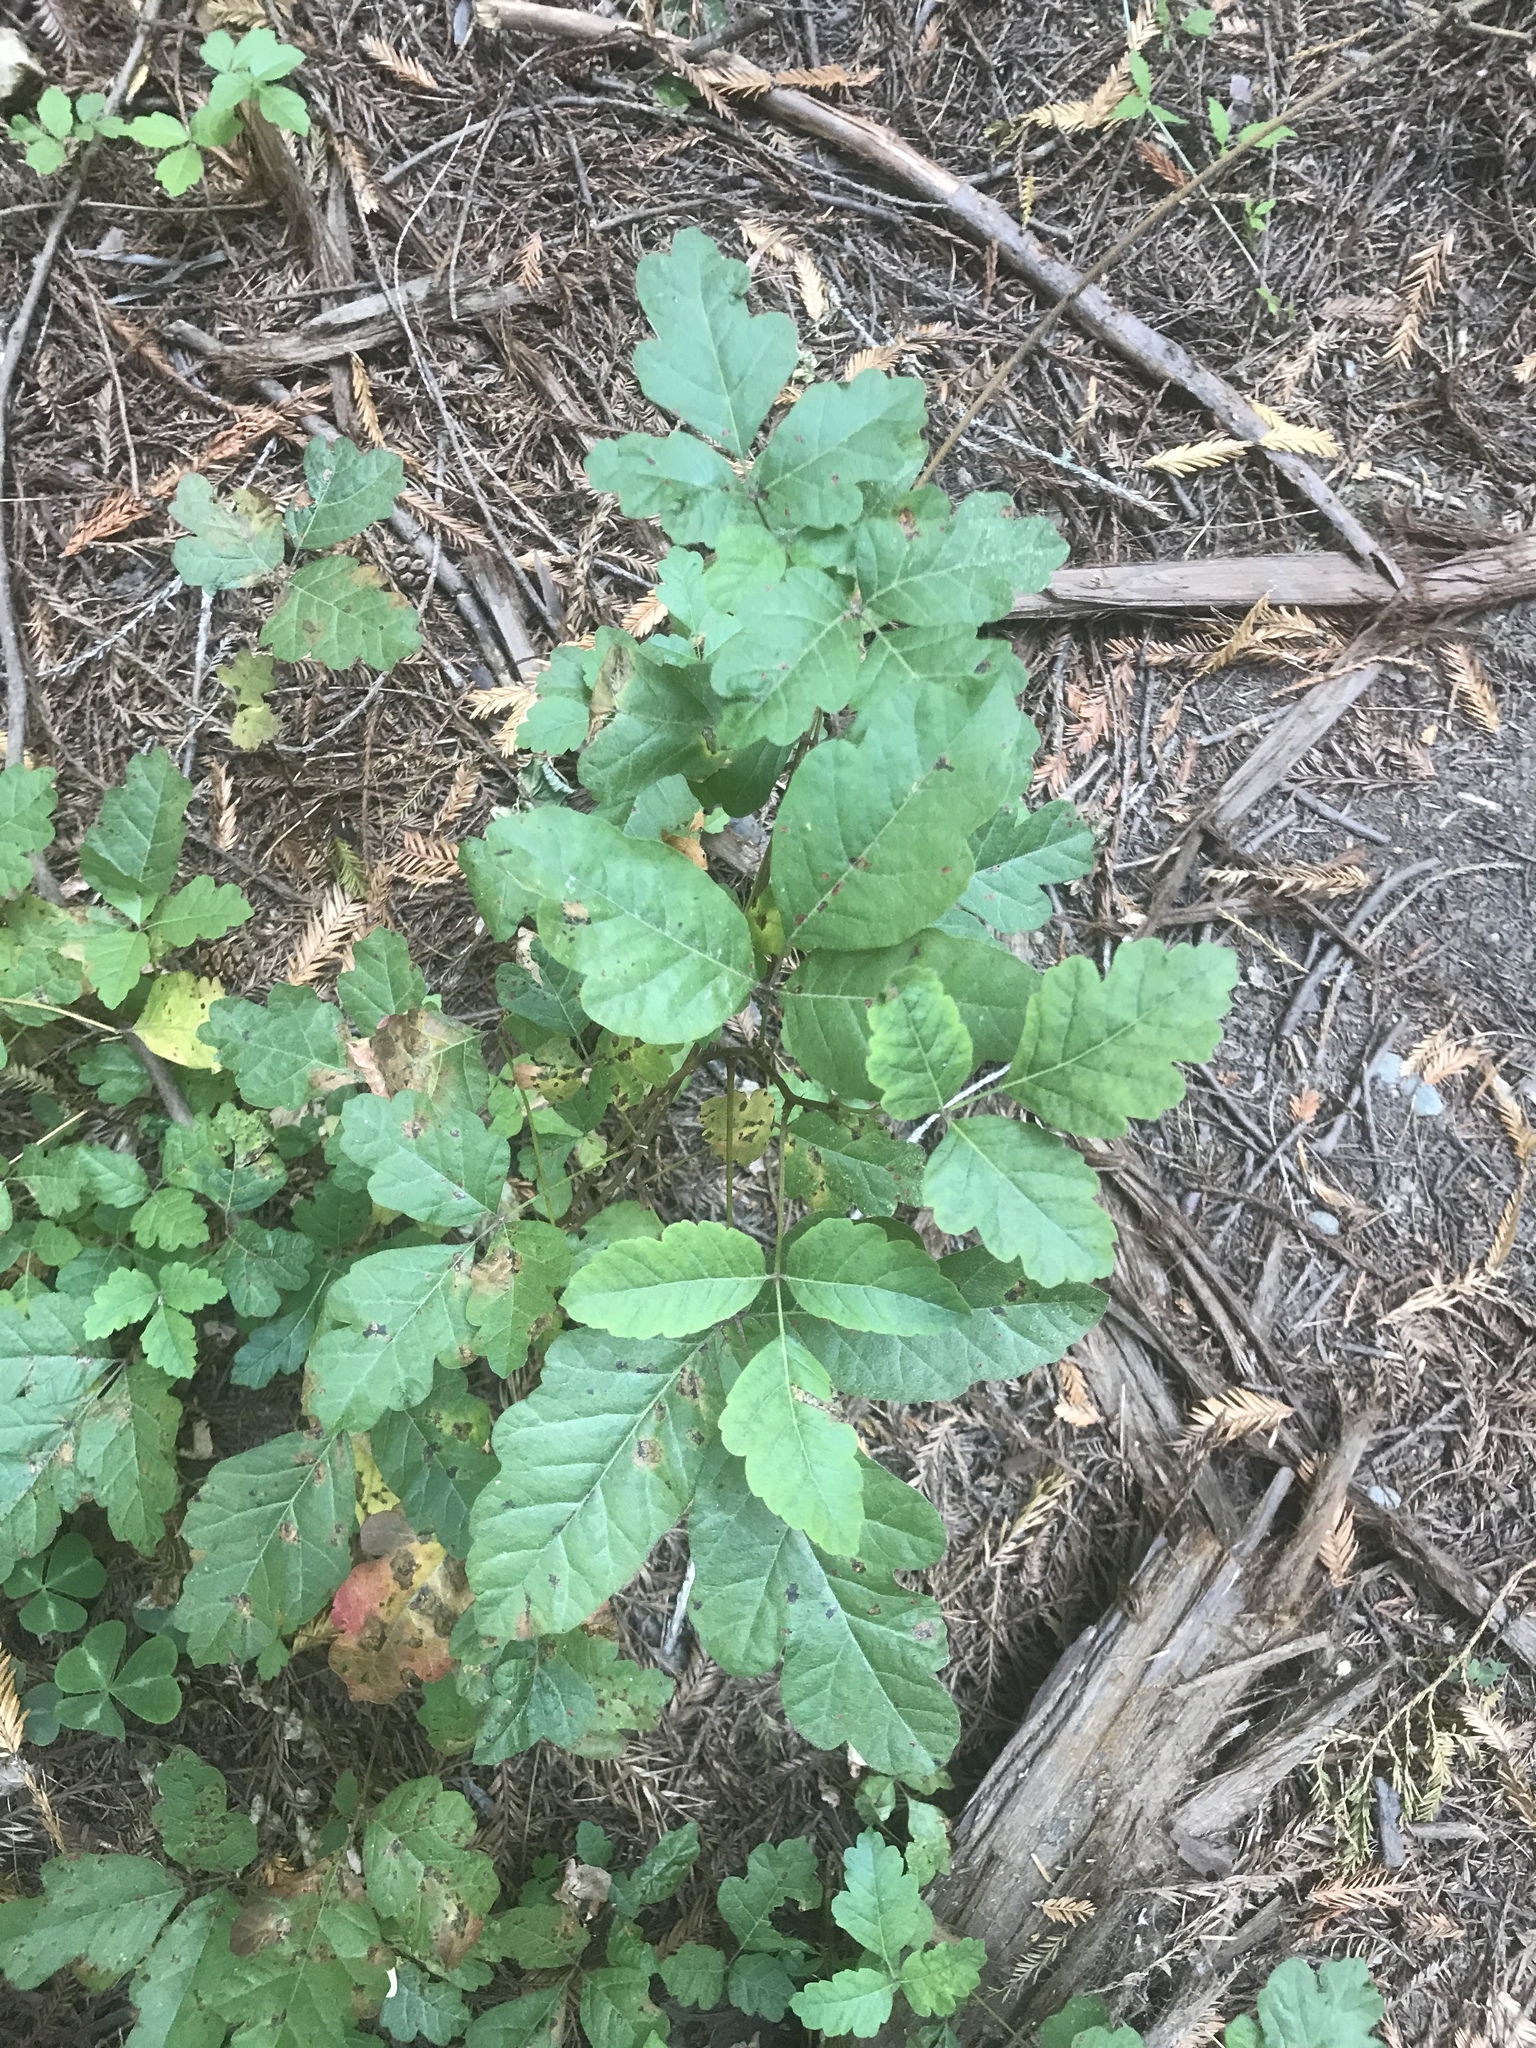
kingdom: Plantae
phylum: Tracheophyta
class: Magnoliopsida
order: Sapindales
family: Anacardiaceae
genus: Toxicodendron
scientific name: Toxicodendron diversilobum
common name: Pacific poison-oak
